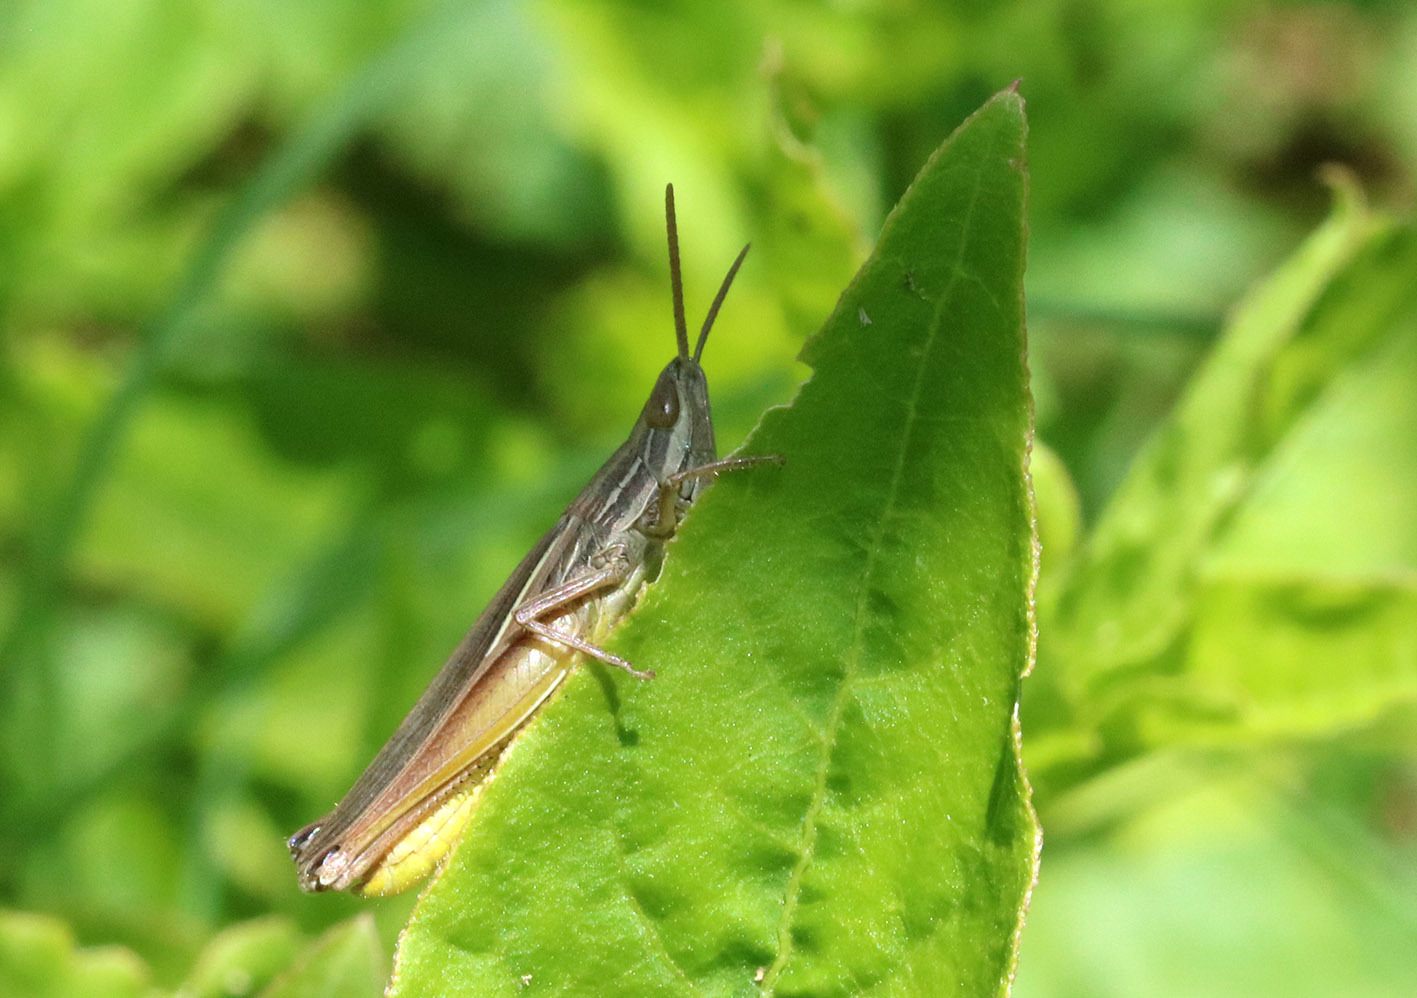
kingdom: Animalia
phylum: Arthropoda
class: Insecta
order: Orthoptera
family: Acrididae
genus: Sinipta
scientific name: Sinipta dalmani
